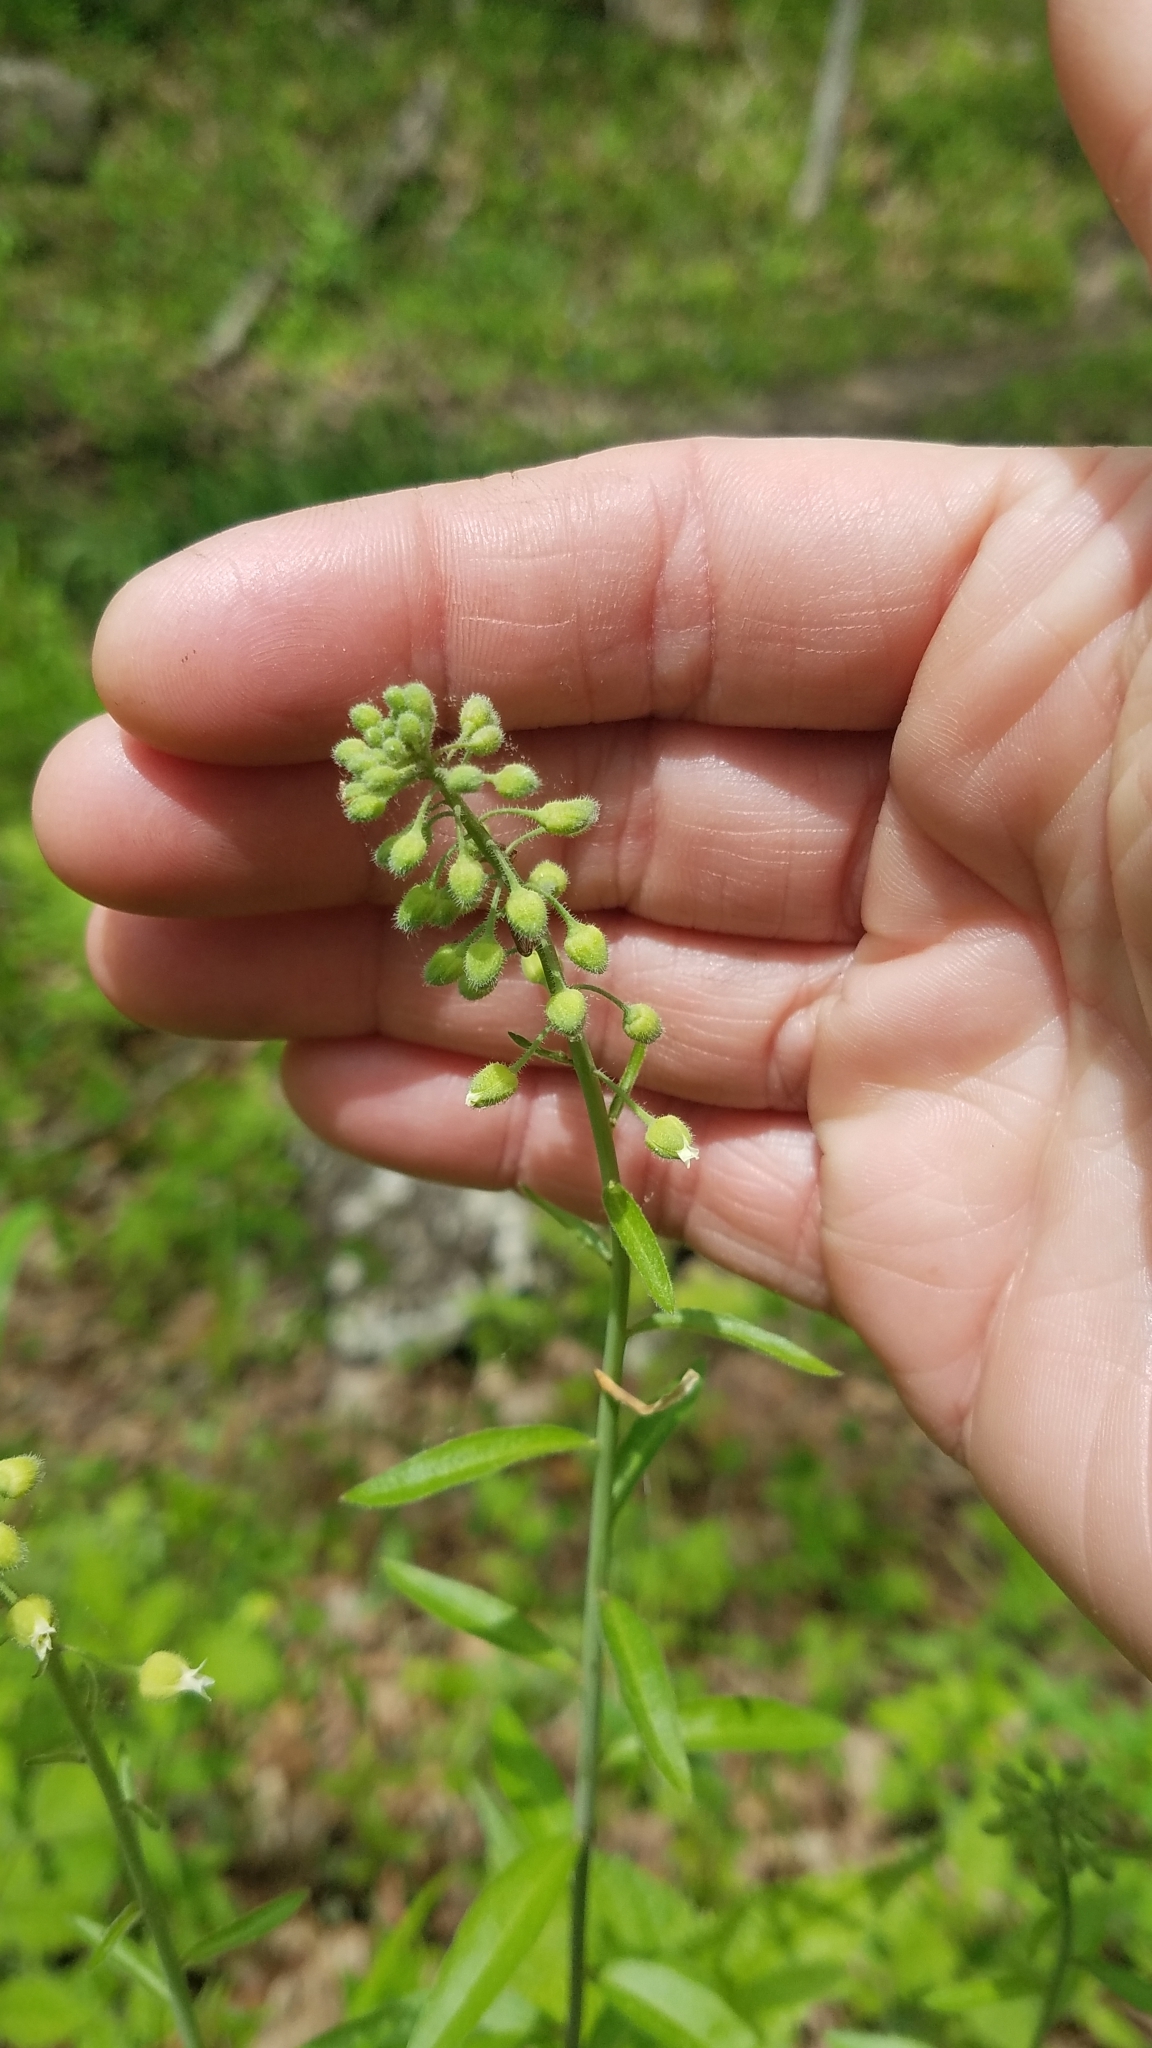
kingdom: Plantae
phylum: Tracheophyta
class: Magnoliopsida
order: Brassicales
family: Brassicaceae
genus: Borodinia
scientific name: Borodinia canadensis
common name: Sicklepod
